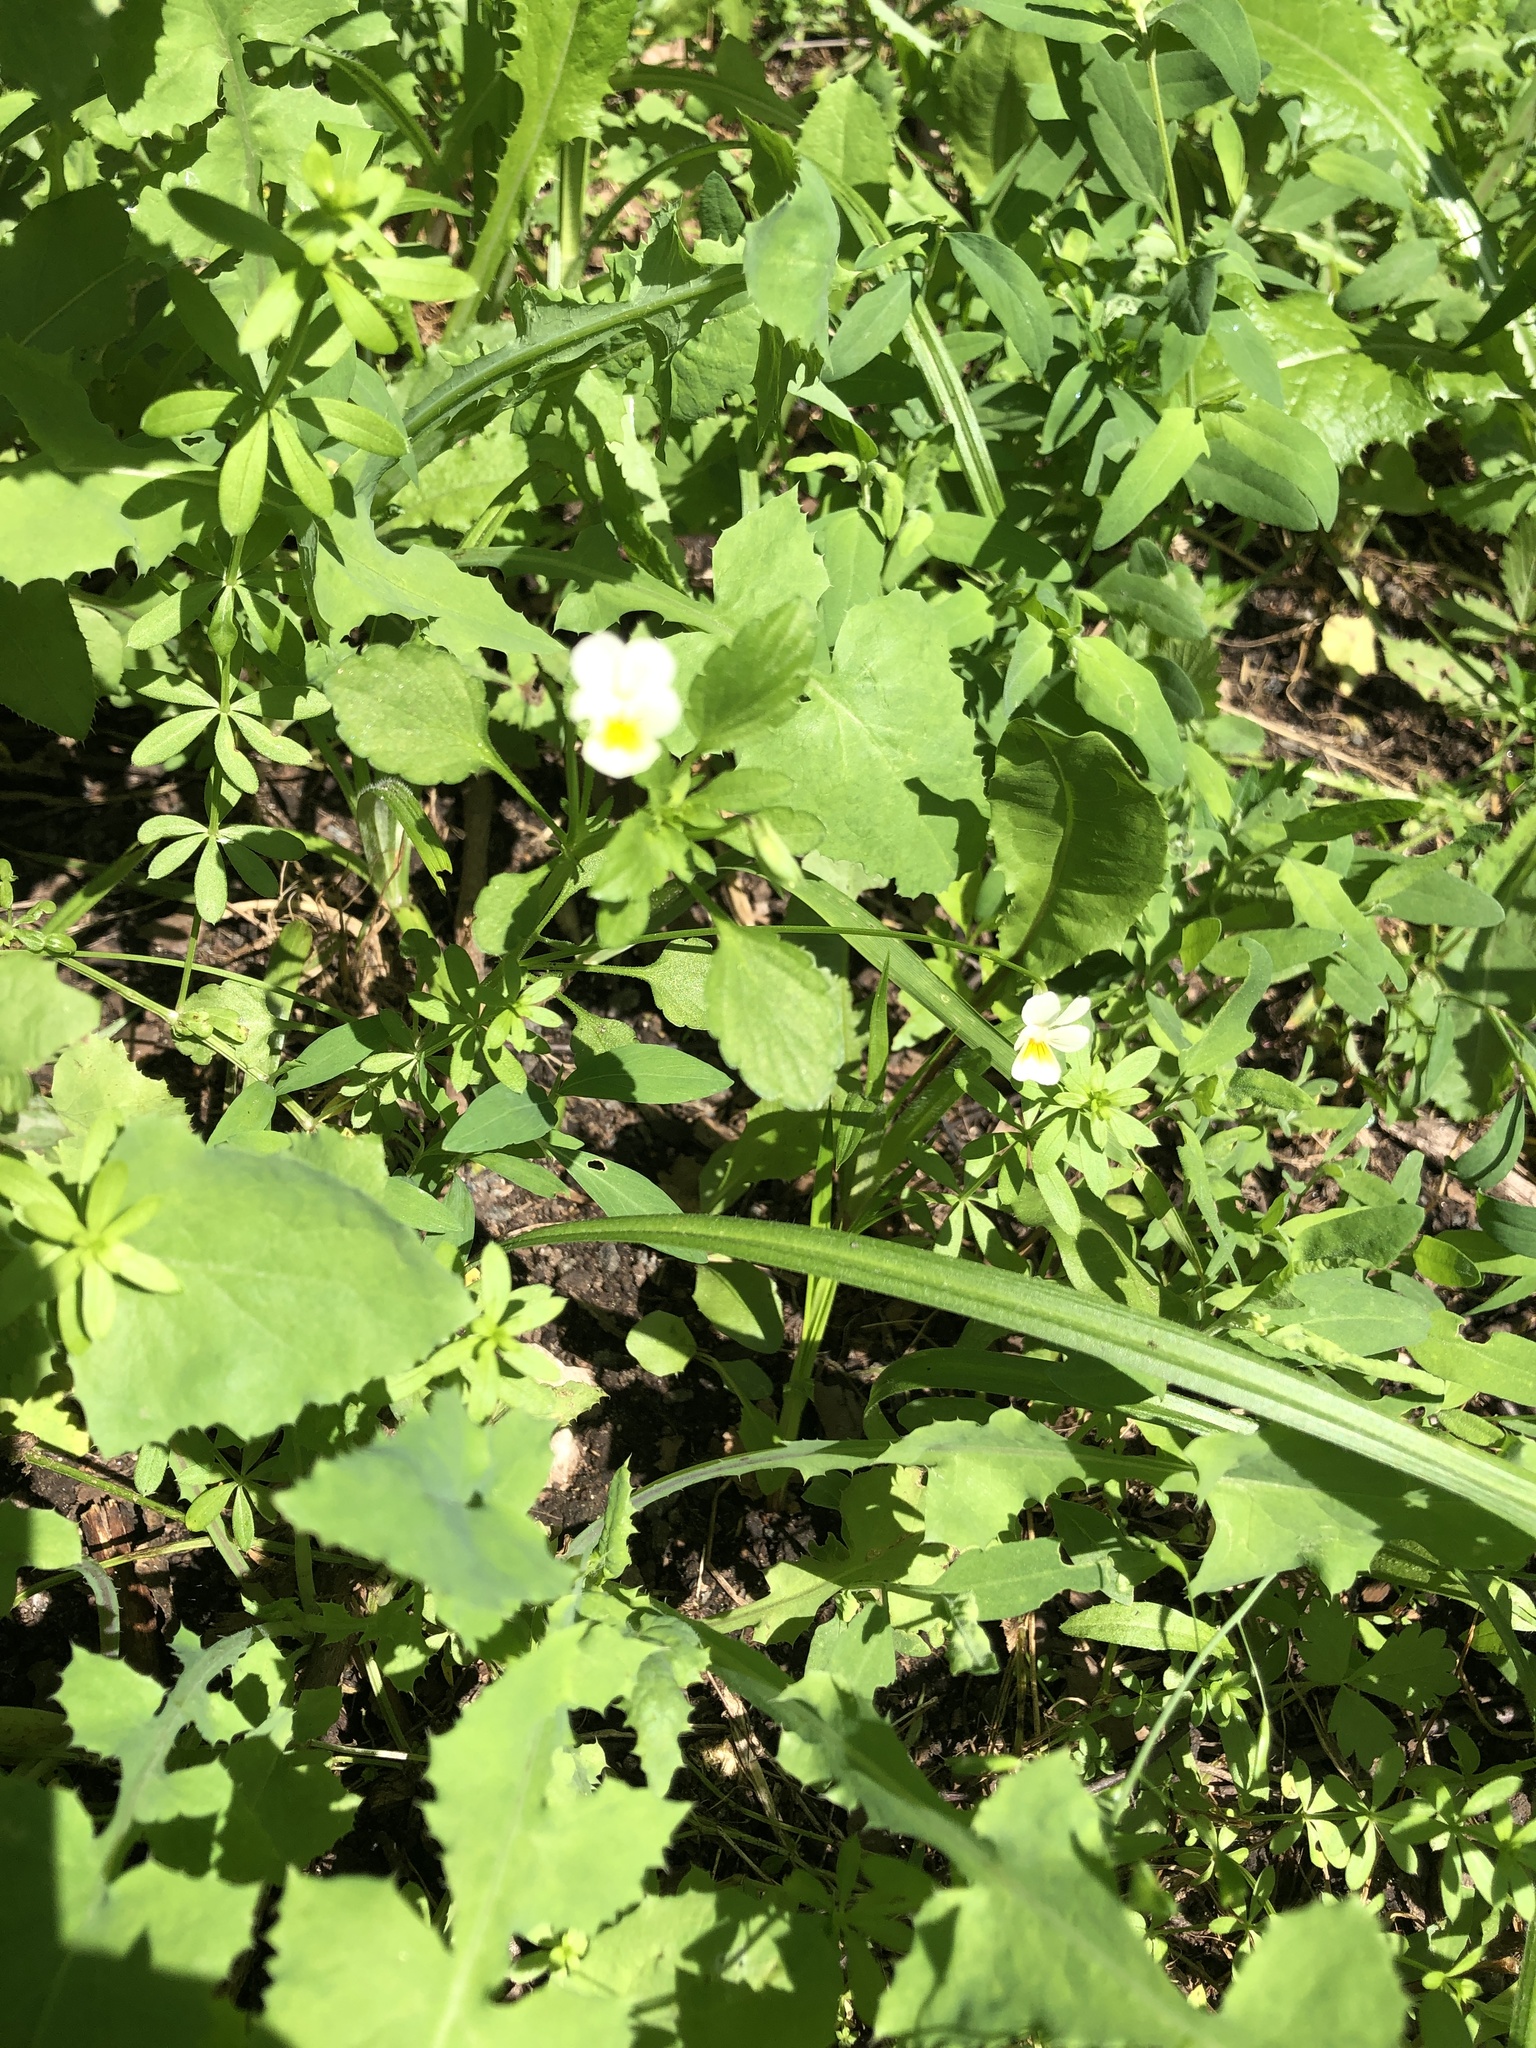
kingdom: Plantae
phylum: Tracheophyta
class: Magnoliopsida
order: Malpighiales
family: Violaceae
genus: Viola
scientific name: Viola arvensis
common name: Field pansy
